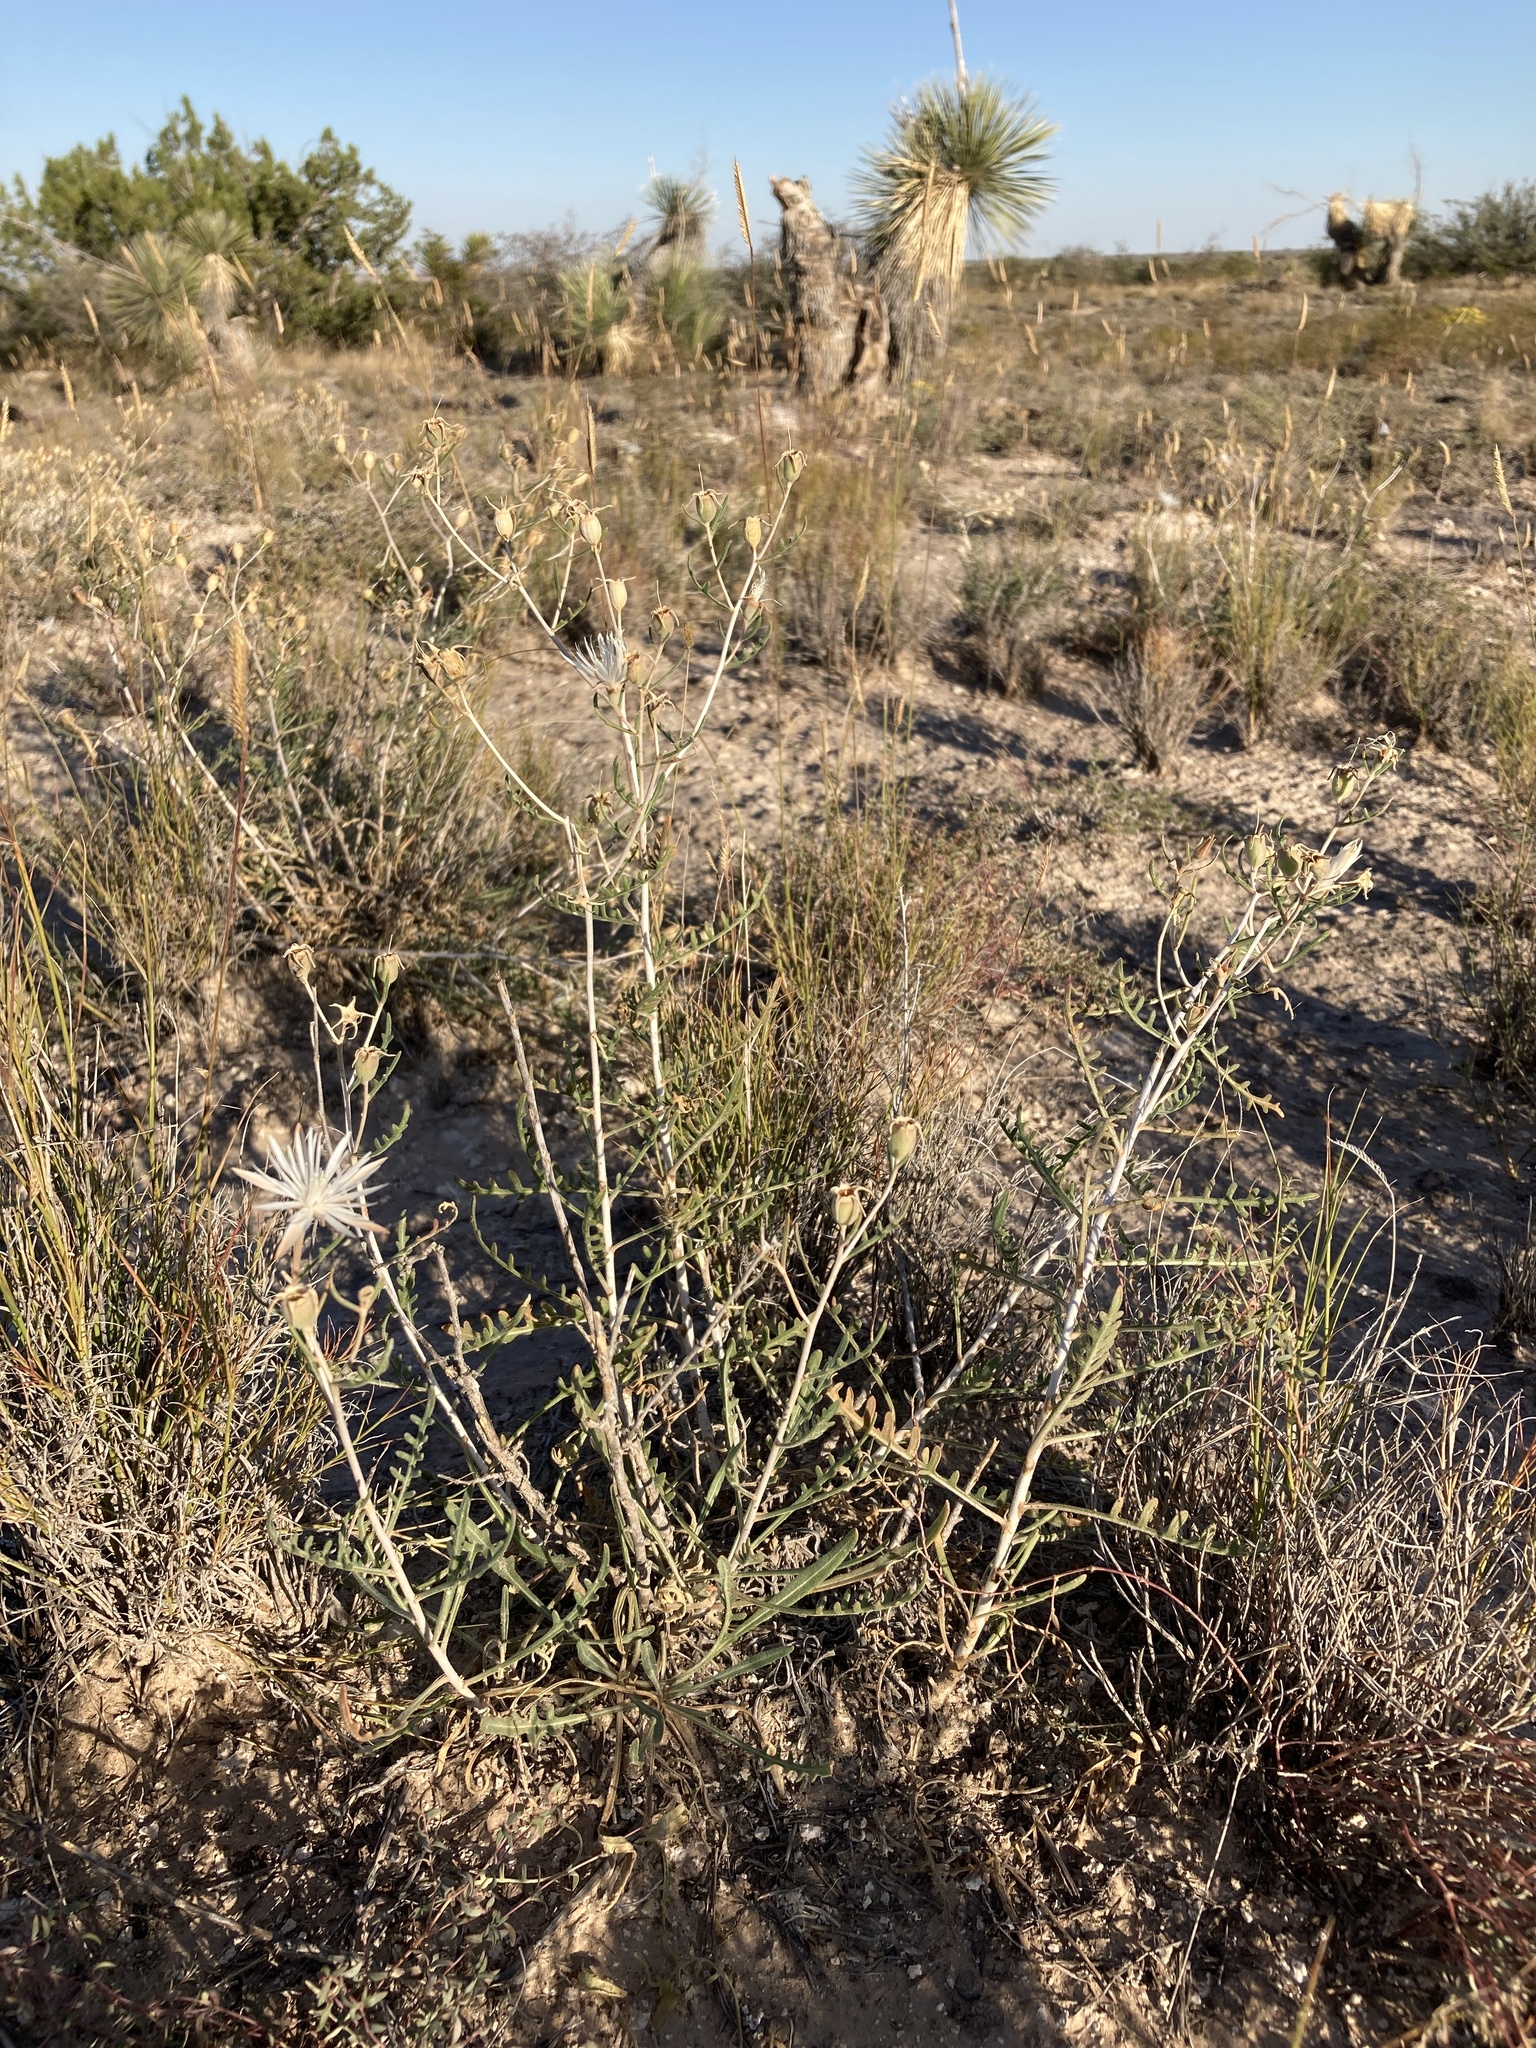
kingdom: Plantae
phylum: Tracheophyta
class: Magnoliopsida
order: Cornales
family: Loasaceae
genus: Mentzelia
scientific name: Mentzelia humilis
